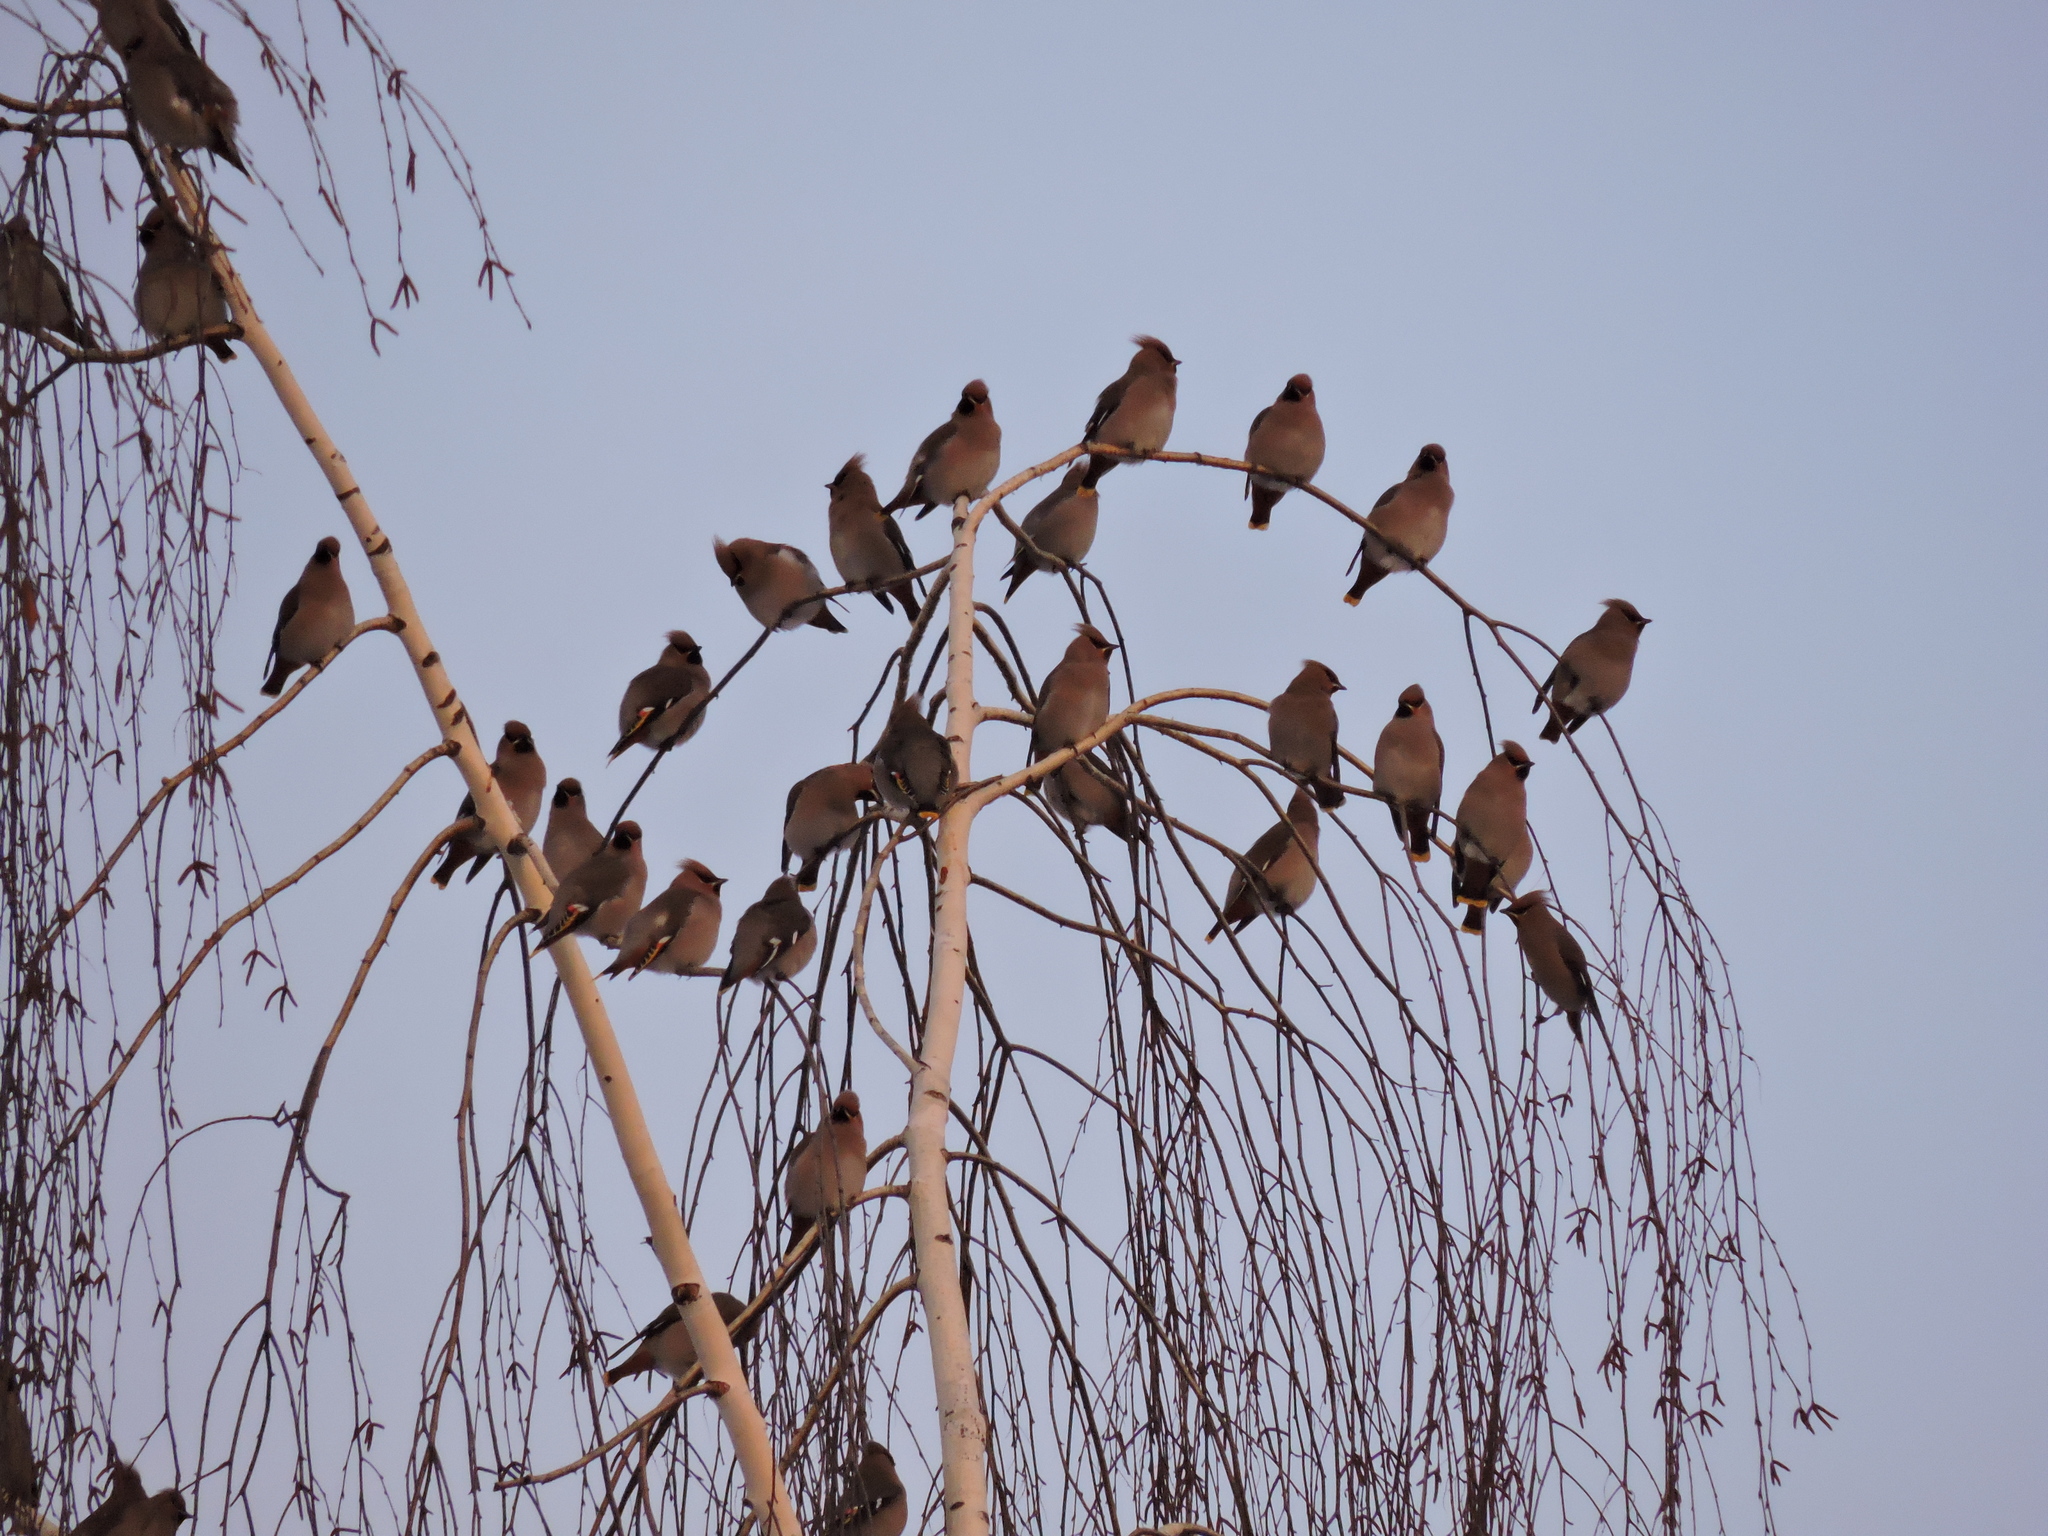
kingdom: Animalia
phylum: Chordata
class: Aves
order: Passeriformes
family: Bombycillidae
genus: Bombycilla
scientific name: Bombycilla garrulus
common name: Bohemian waxwing
